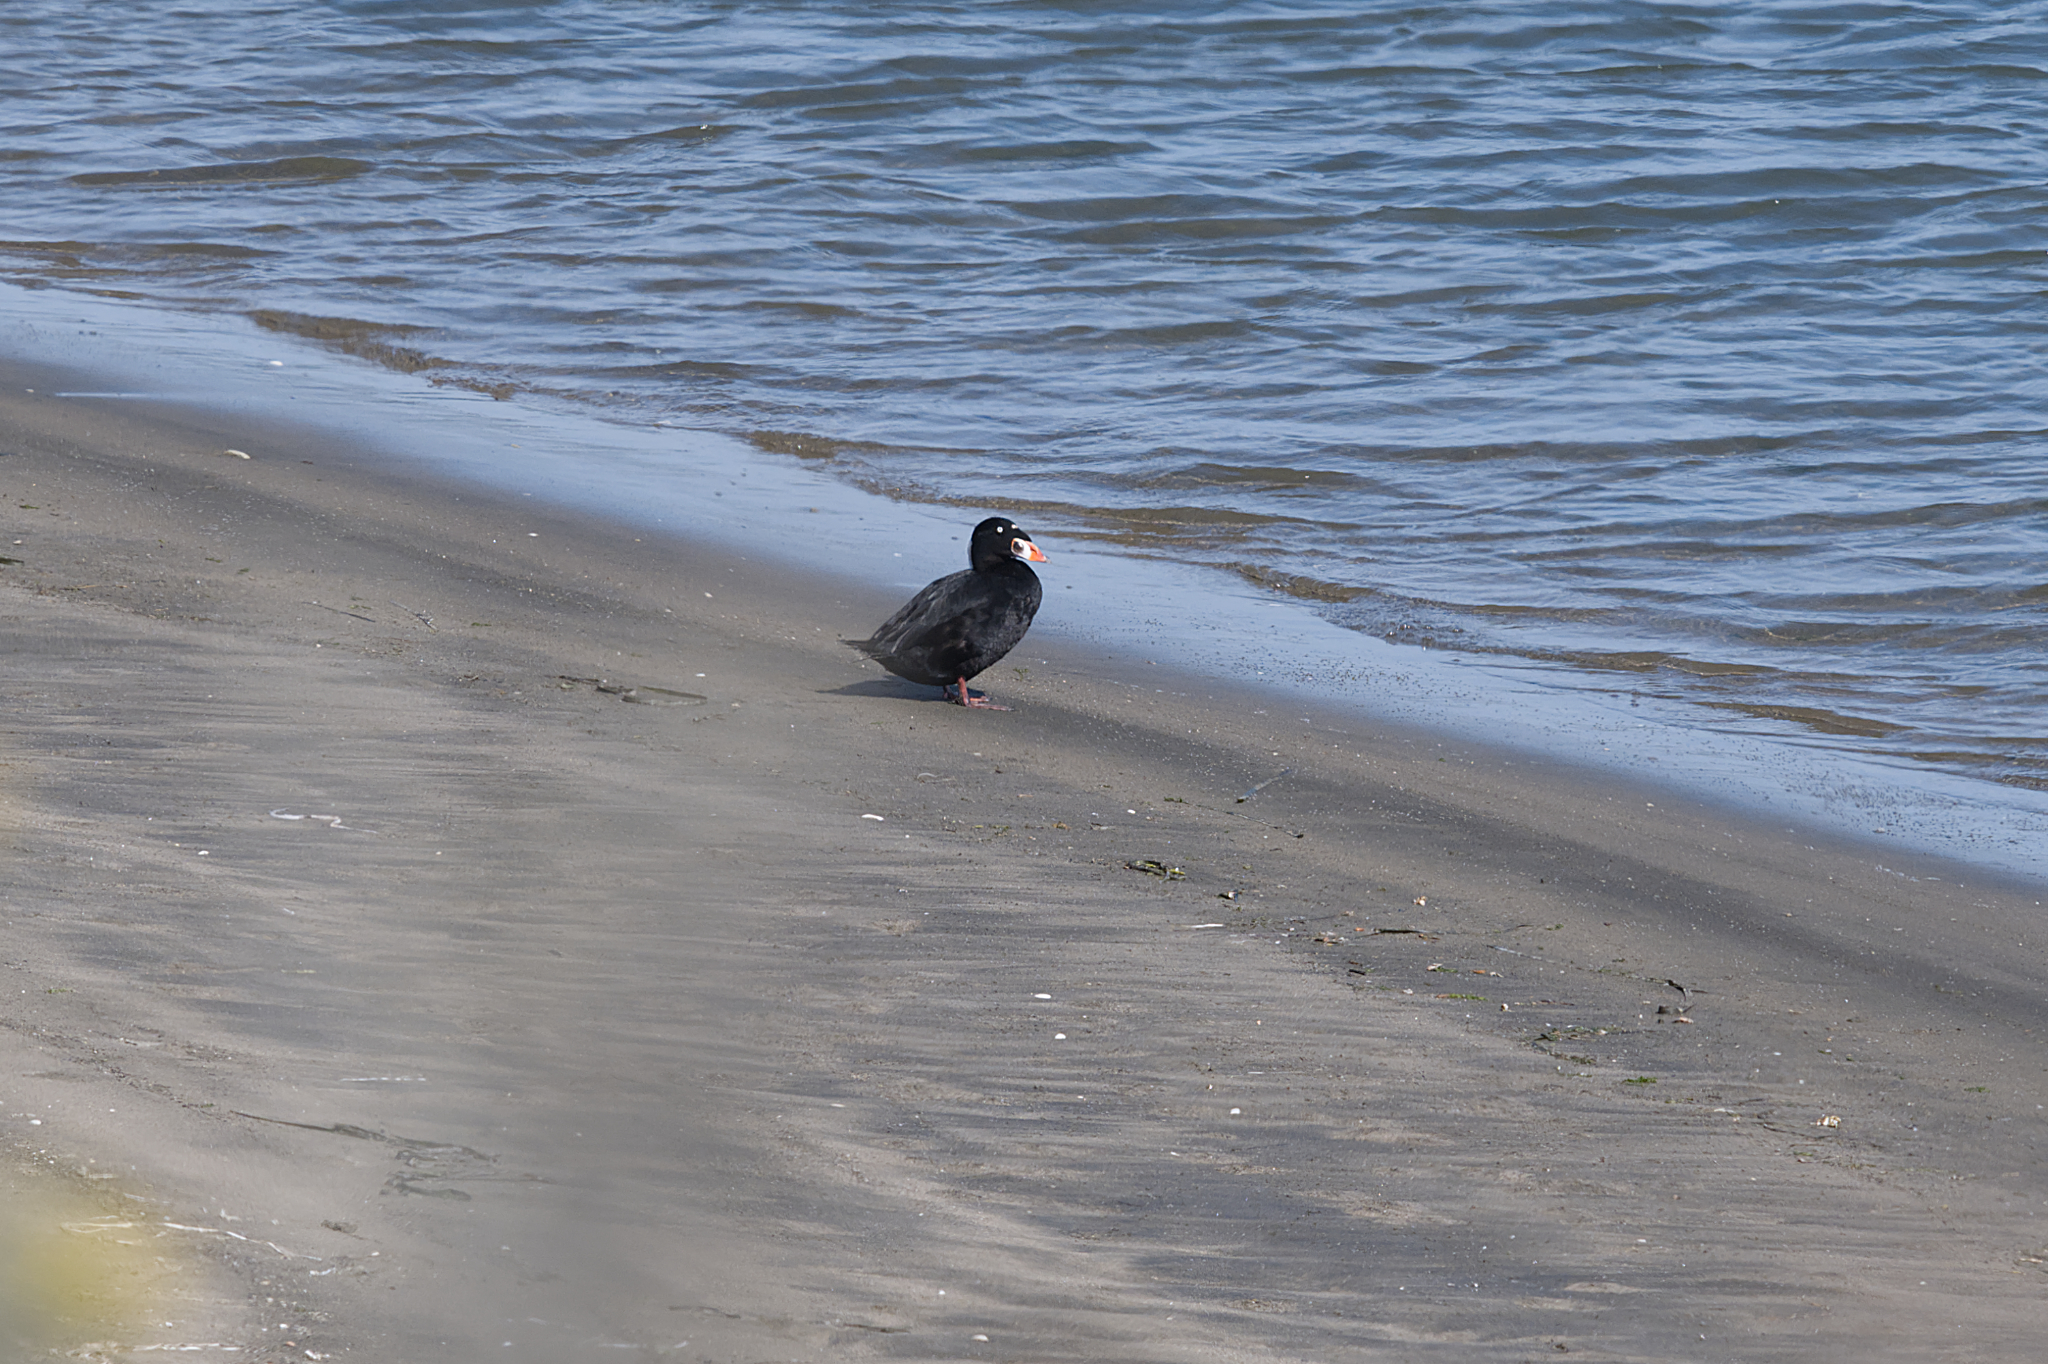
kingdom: Animalia
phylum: Chordata
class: Aves
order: Anseriformes
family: Anatidae
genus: Melanitta
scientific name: Melanitta perspicillata
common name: Surf scoter
